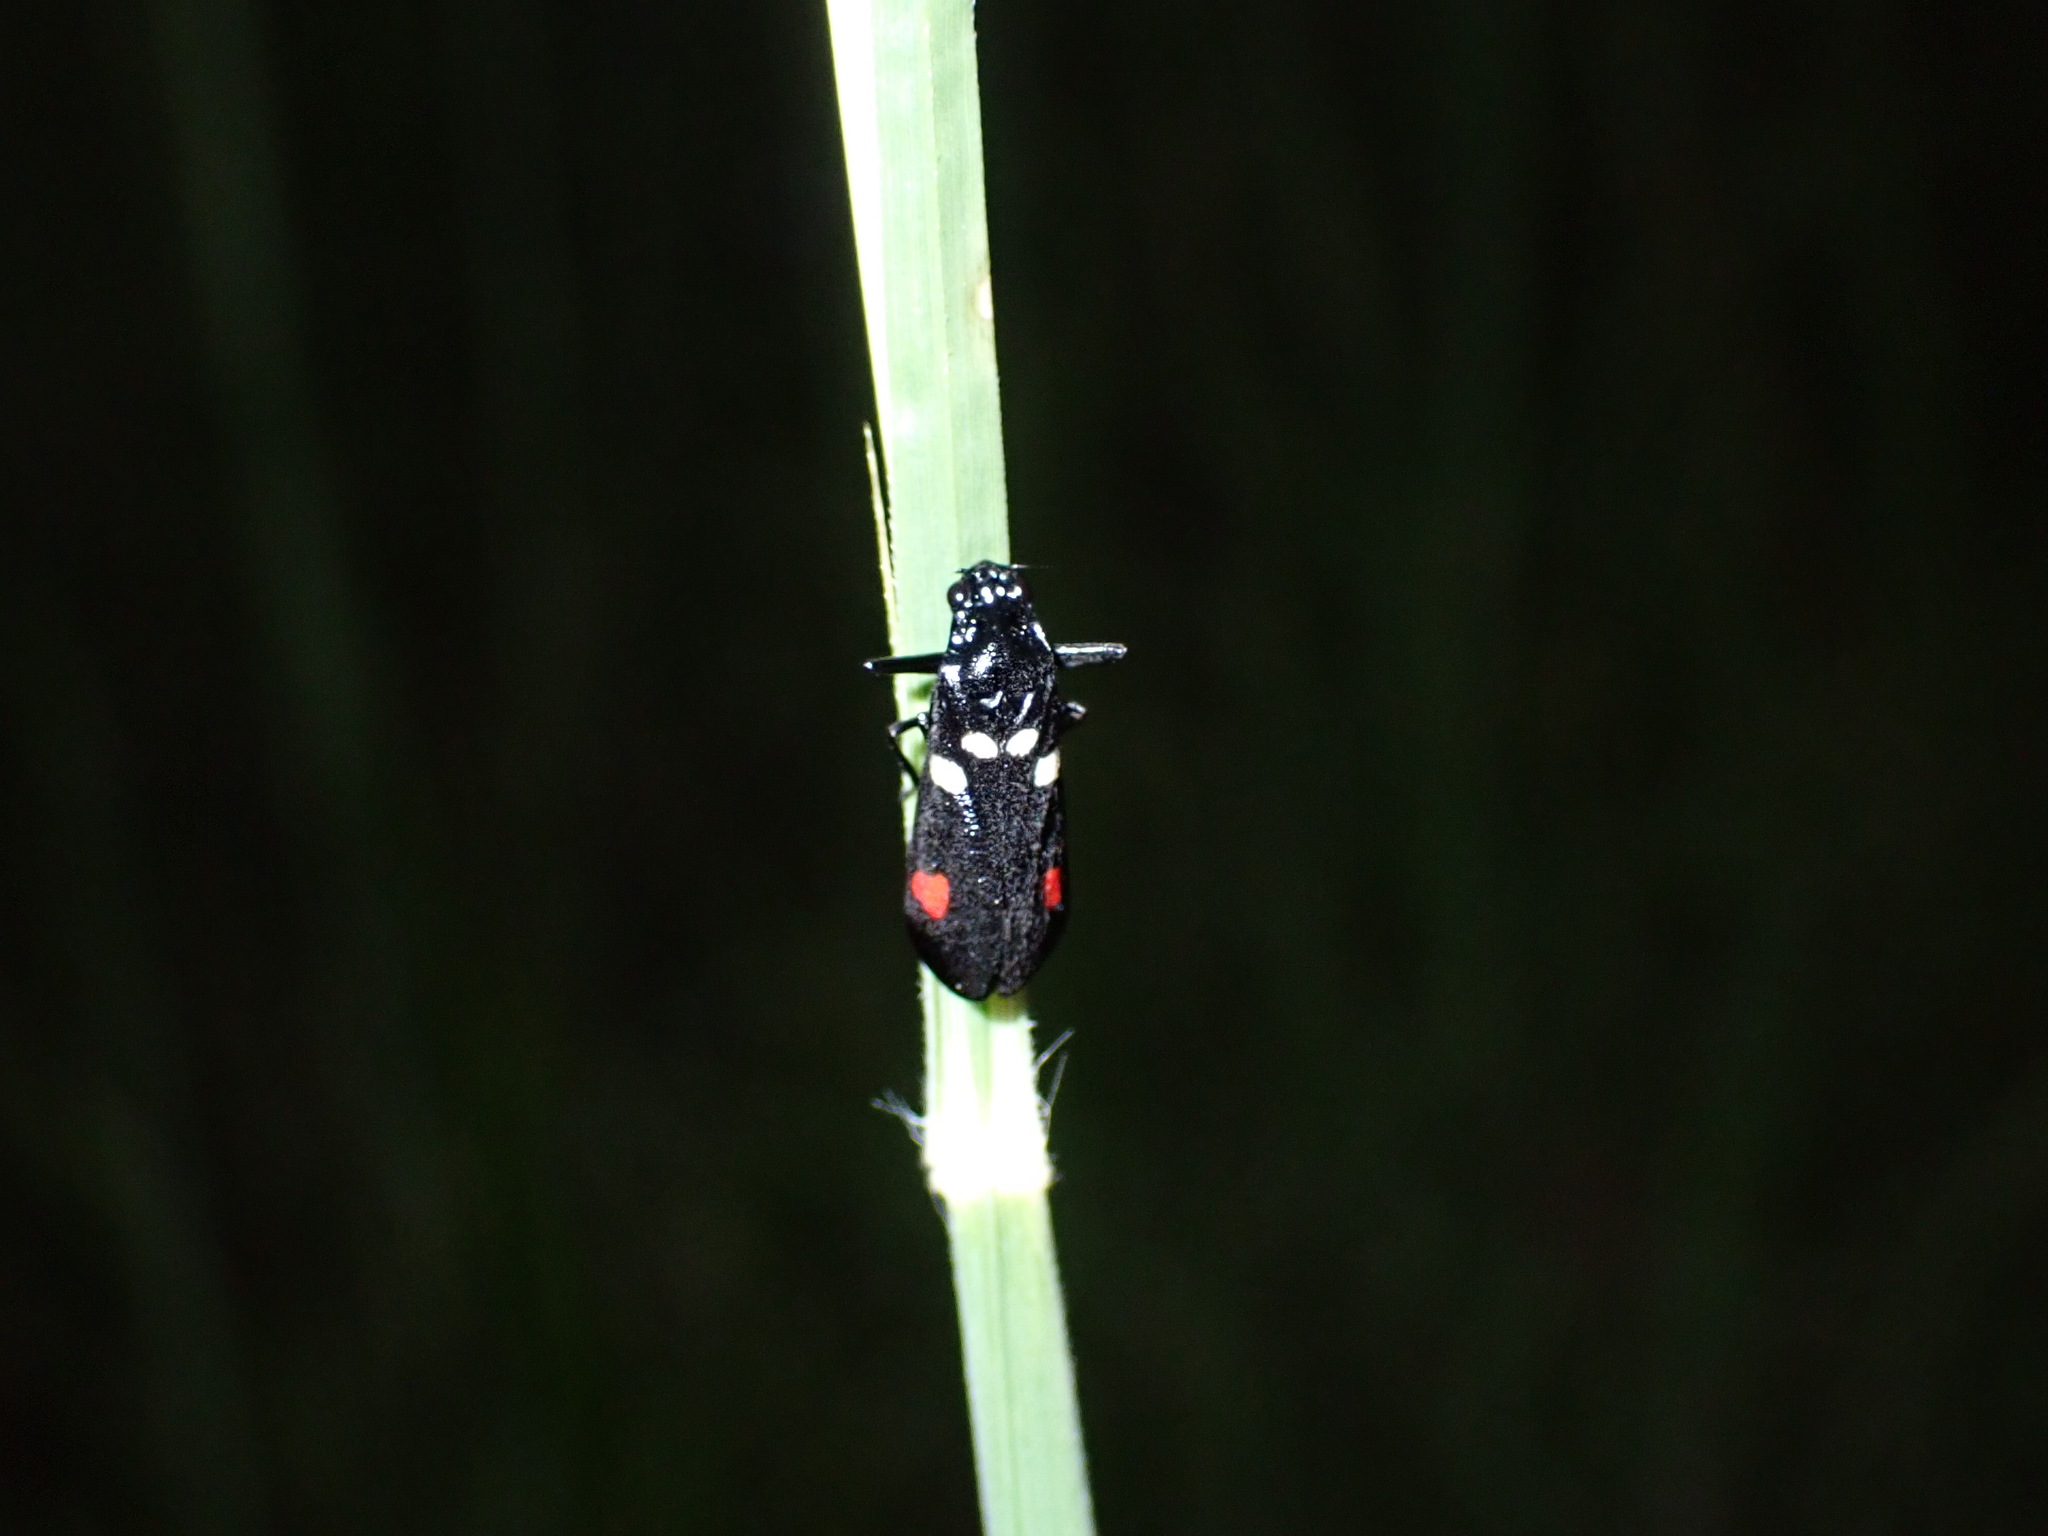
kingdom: Animalia
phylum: Arthropoda
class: Insecta
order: Hemiptera
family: Cercopidae
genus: Callitettix
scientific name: Callitettix versicolor
